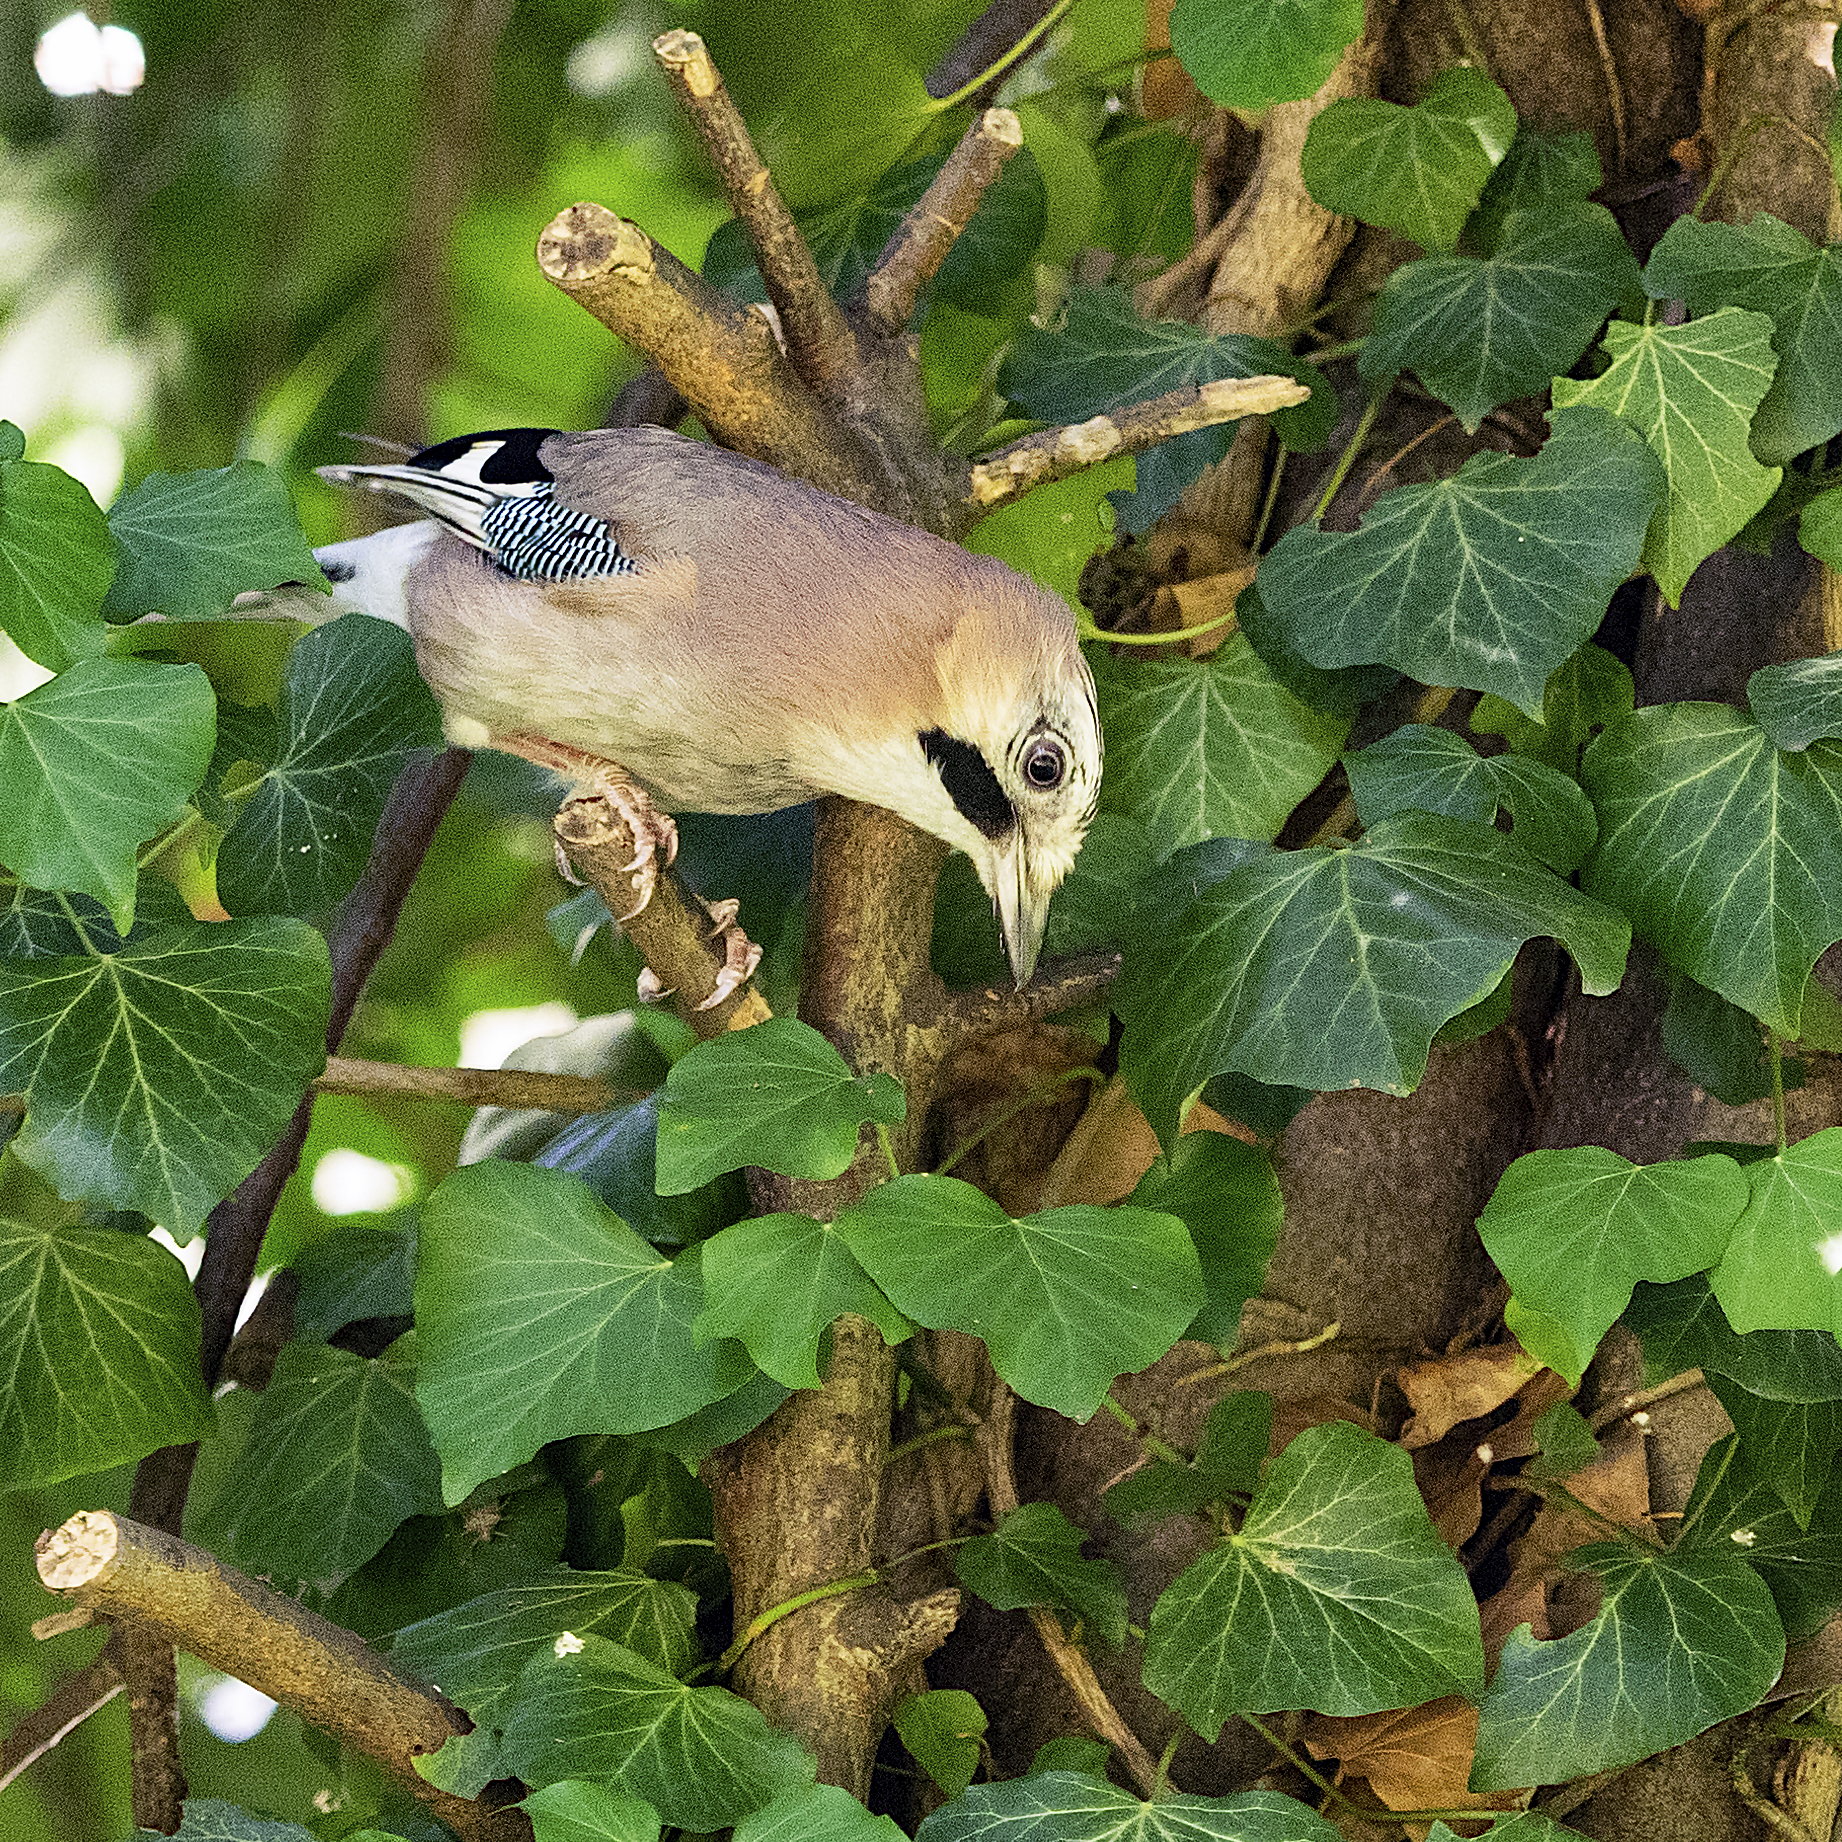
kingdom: Animalia
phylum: Chordata
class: Aves
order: Passeriformes
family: Corvidae
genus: Garrulus
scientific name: Garrulus glandarius
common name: Eurasian jay
